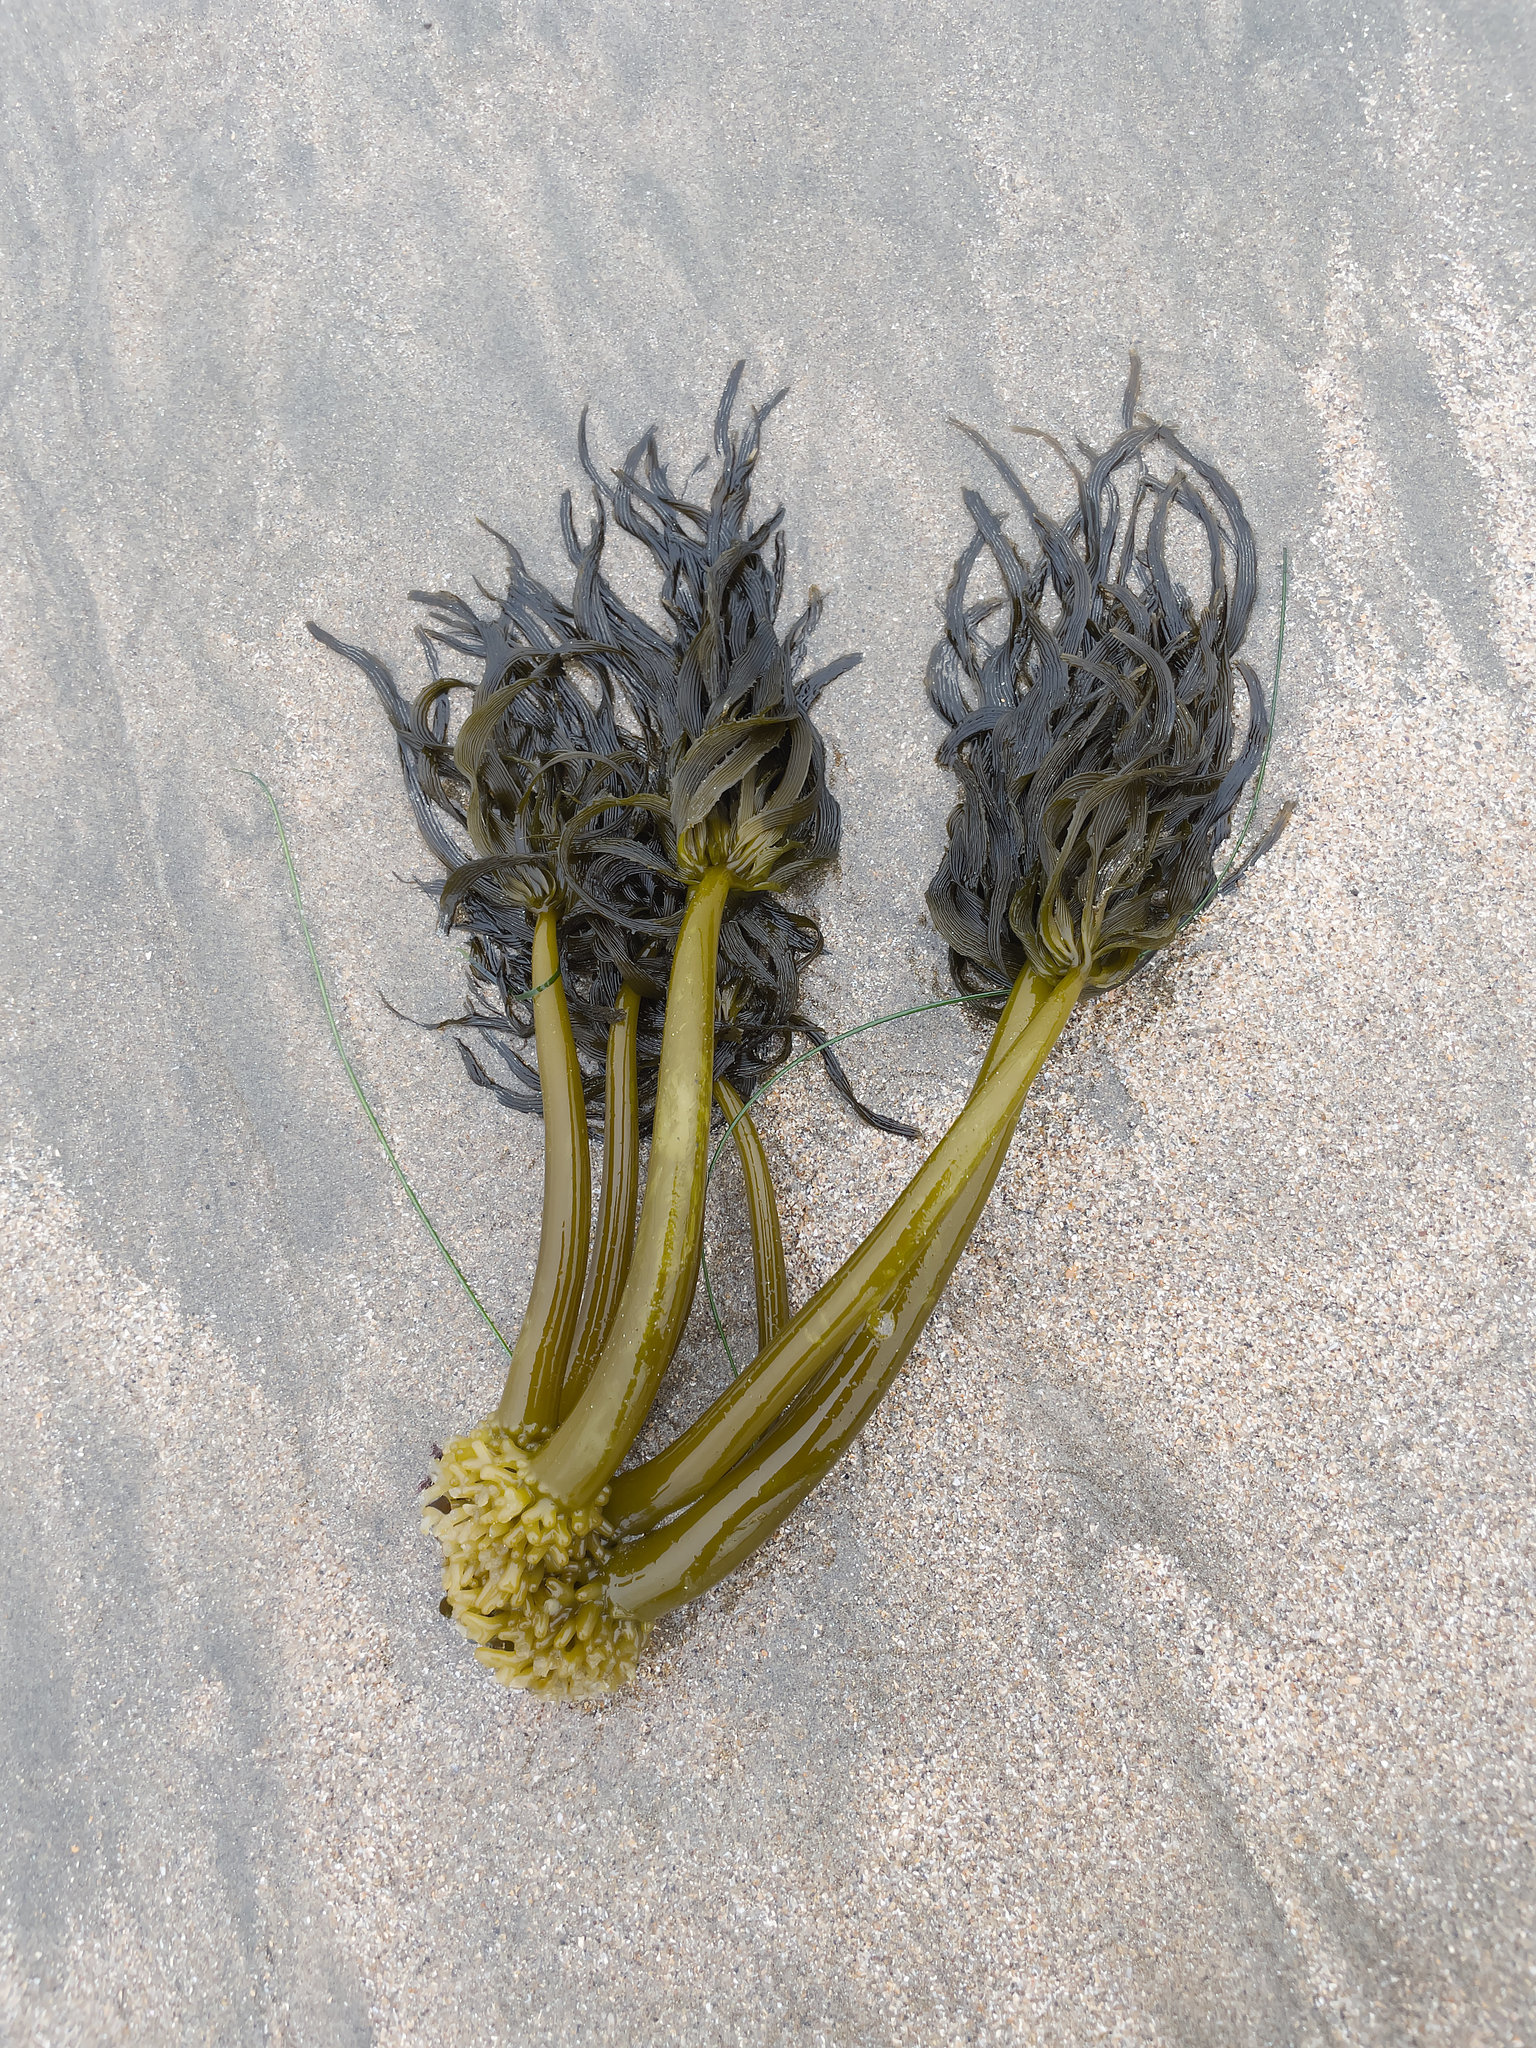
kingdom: Chromista
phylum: Ochrophyta
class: Phaeophyceae
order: Laminariales
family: Laminariaceae
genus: Postelsia
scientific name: Postelsia palmiformis
